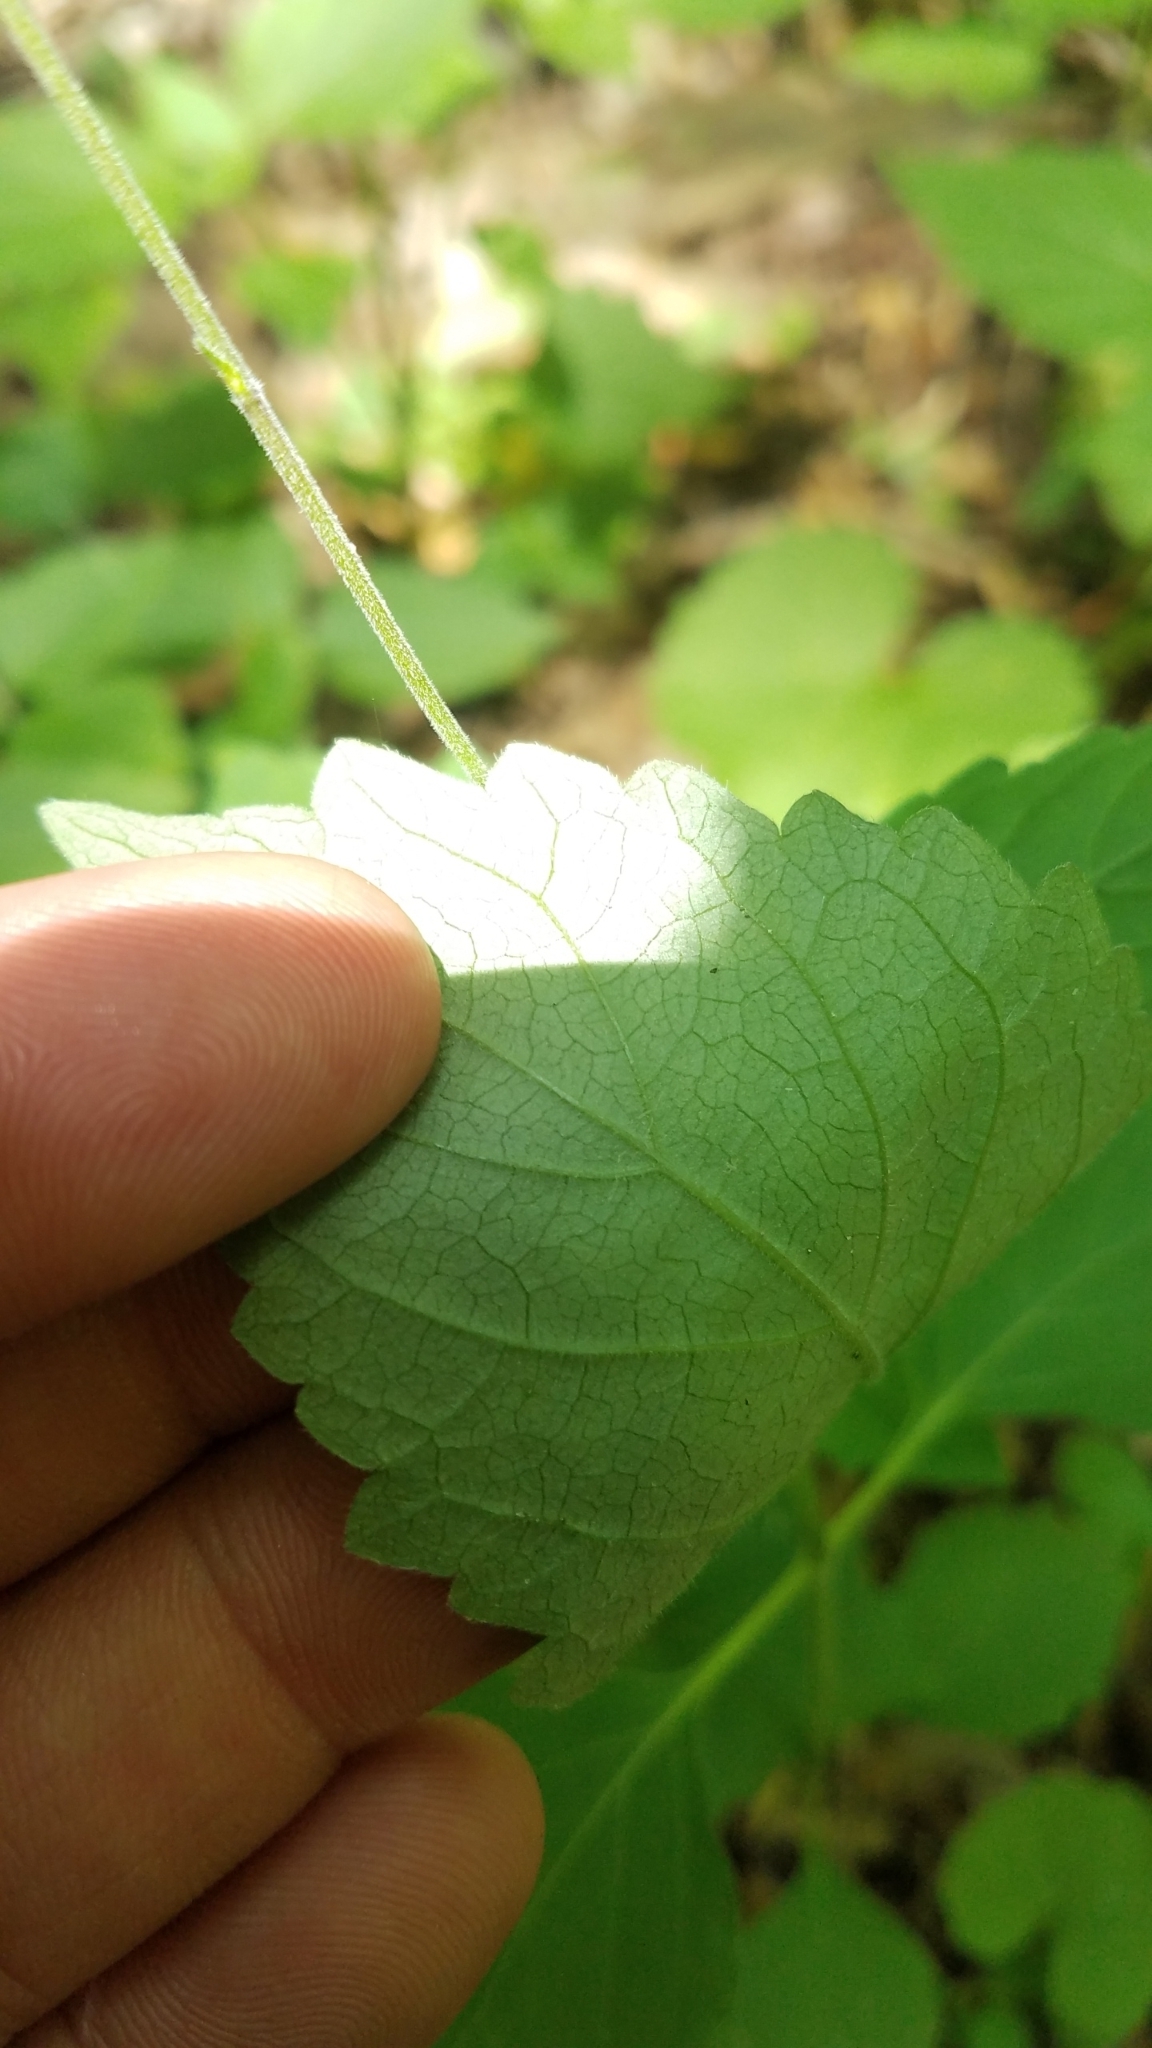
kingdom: Plantae
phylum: Tracheophyta
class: Magnoliopsida
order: Lamiales
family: Phrymaceae
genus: Phryma
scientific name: Phryma leptostachya
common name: American lopseed
